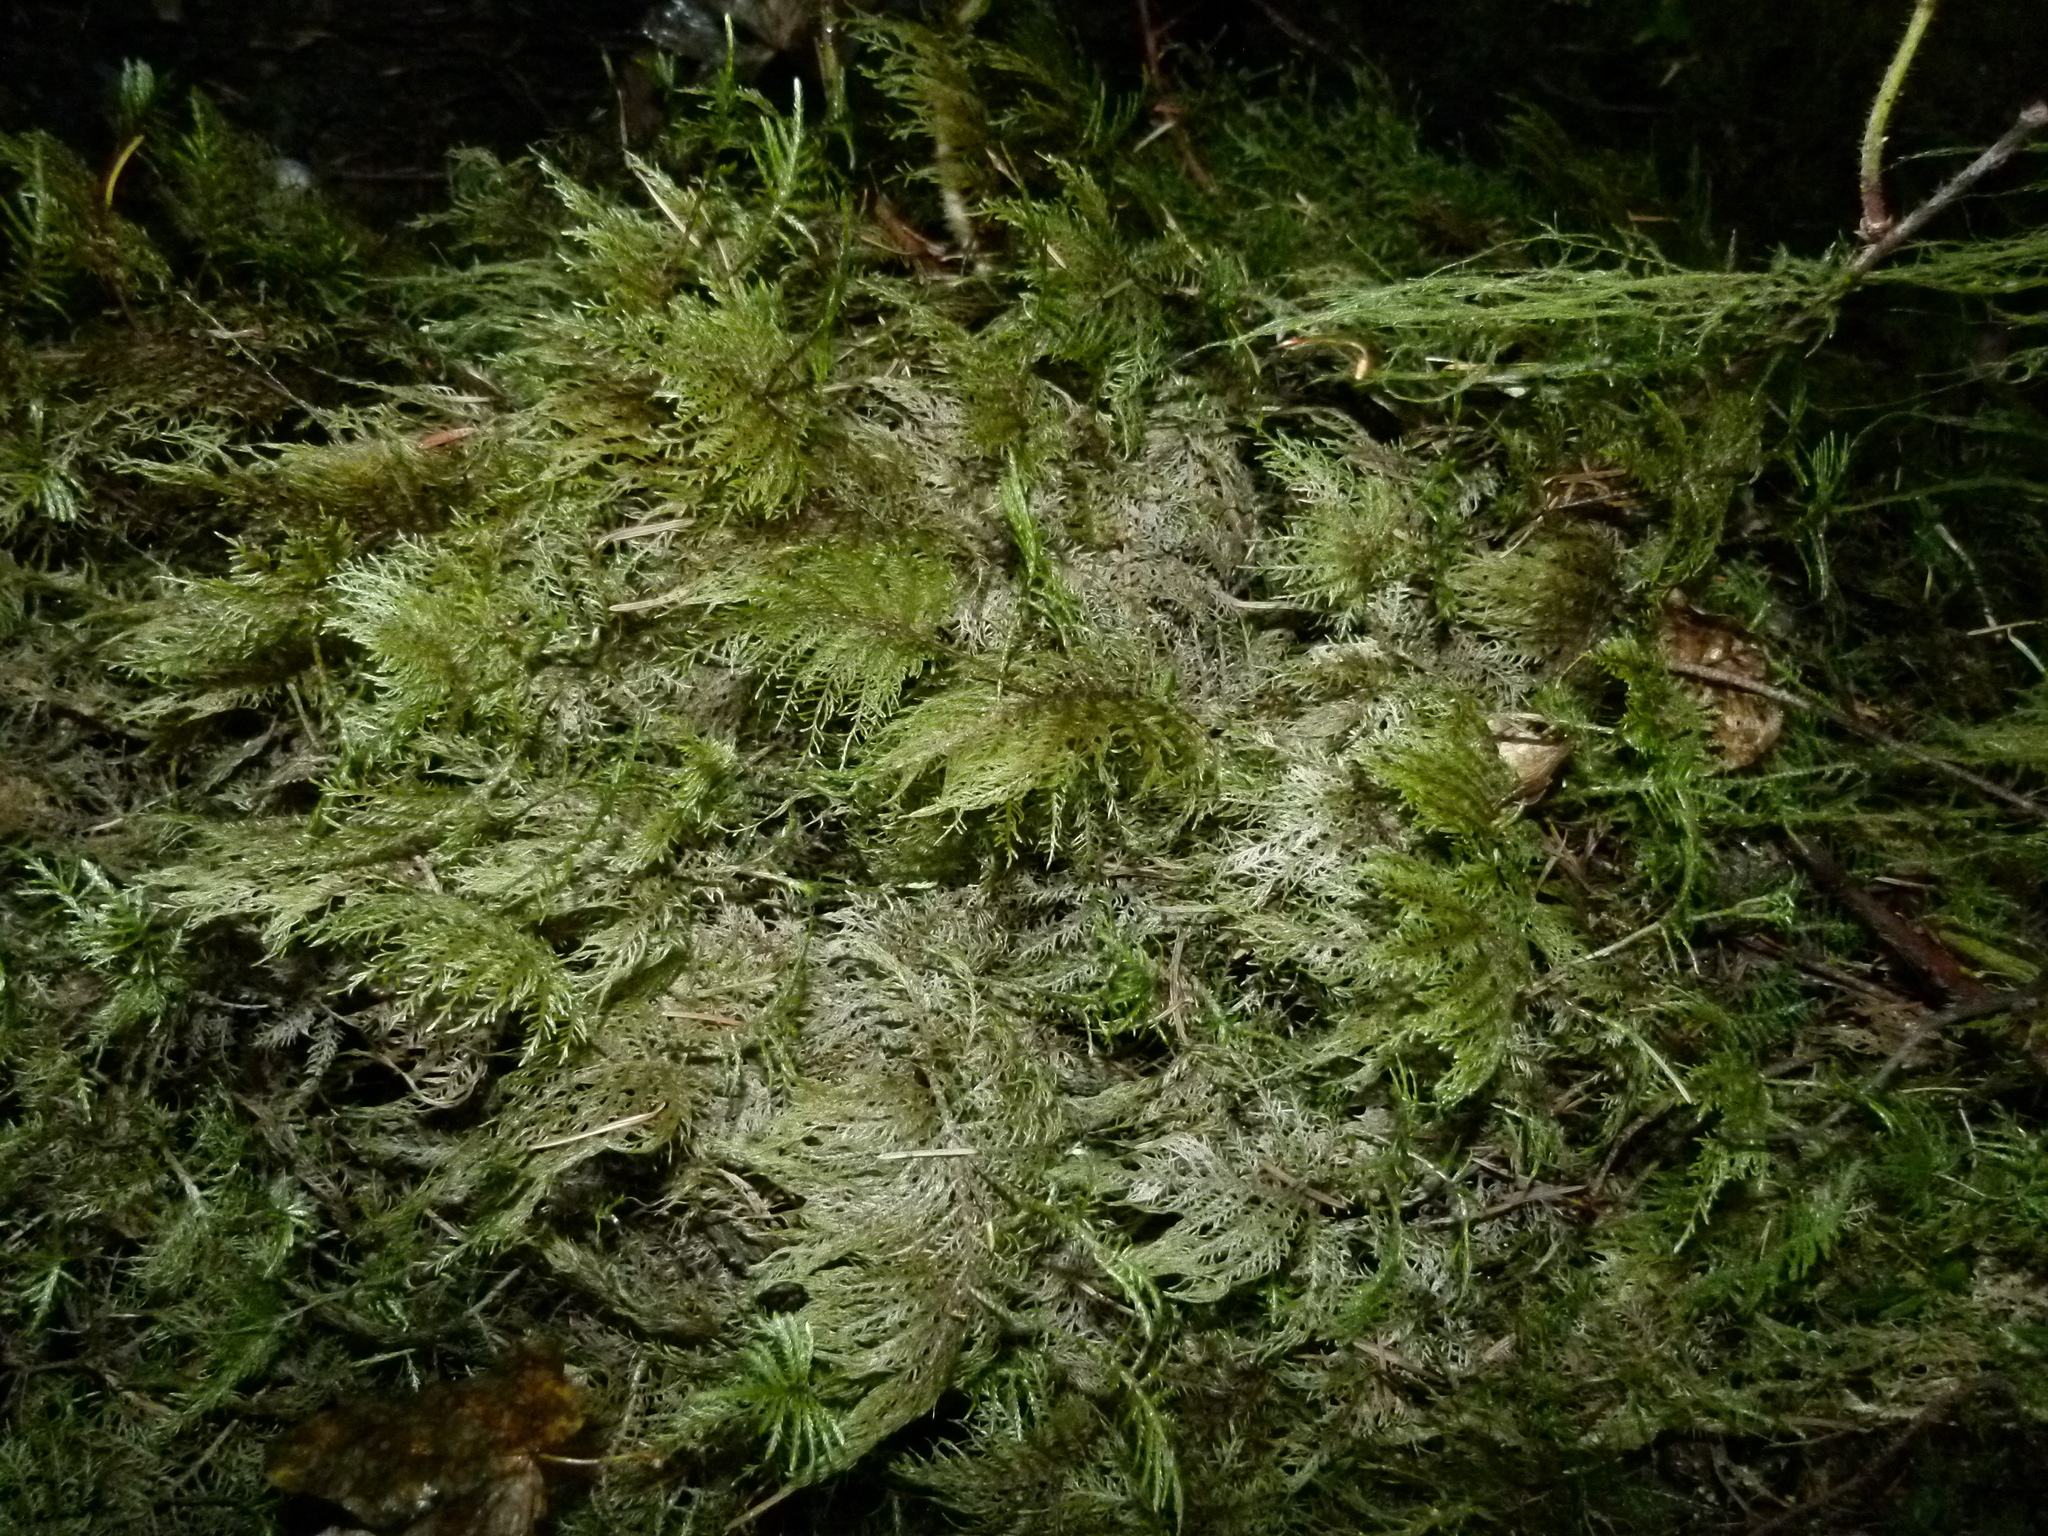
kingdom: Plantae
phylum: Bryophyta
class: Bryopsida
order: Hypnales
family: Hylocomiaceae
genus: Hylocomium
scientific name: Hylocomium splendens
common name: Stairstep moss
